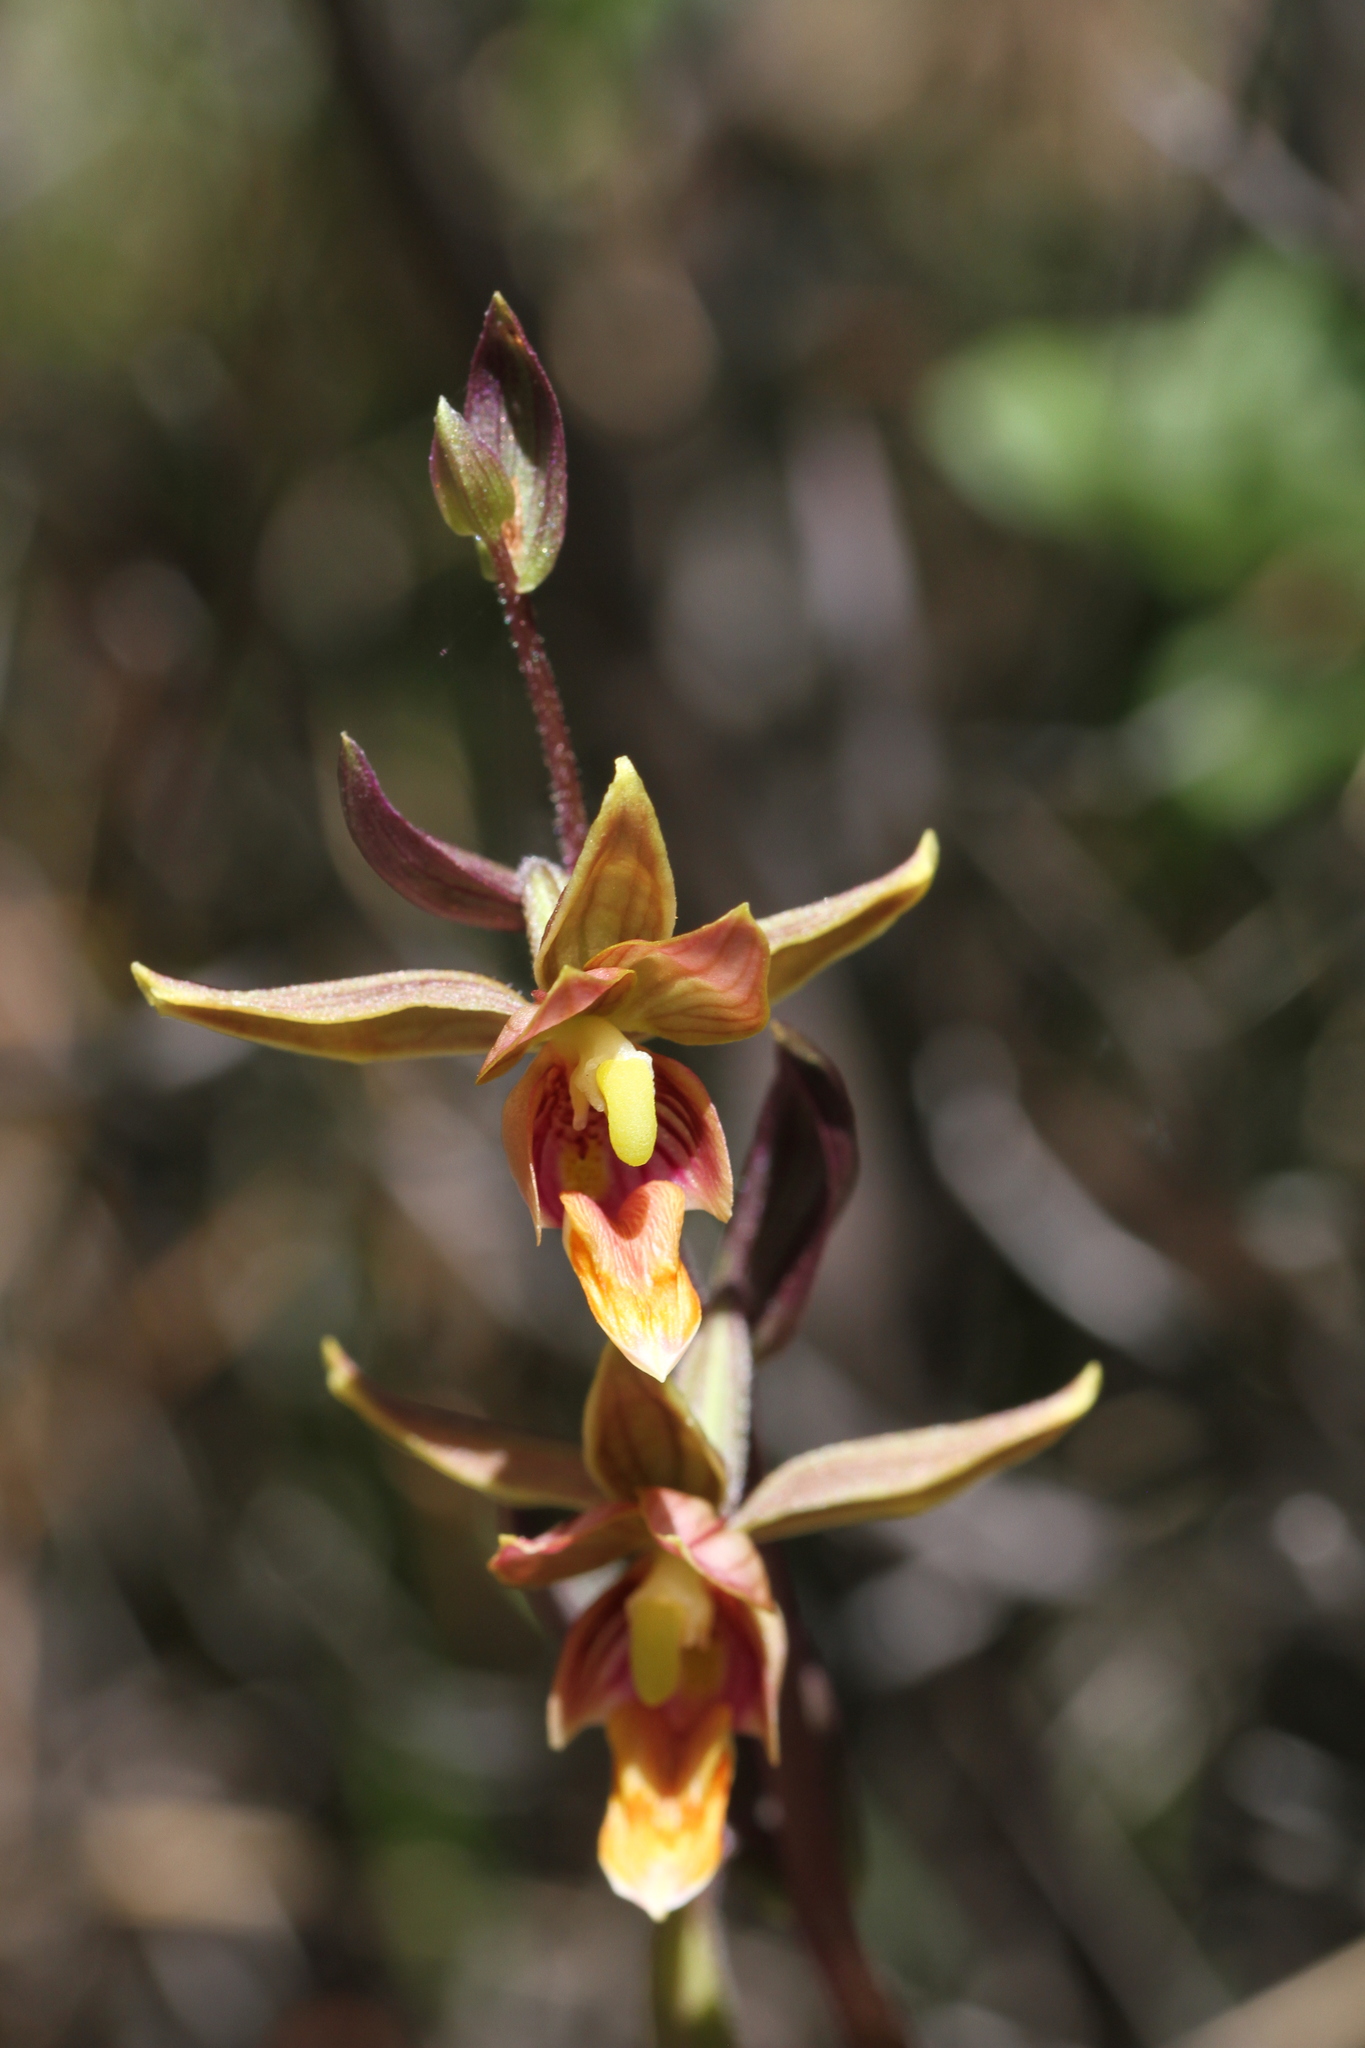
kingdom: Plantae
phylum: Tracheophyta
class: Liliopsida
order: Asparagales
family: Orchidaceae
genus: Epipactis
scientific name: Epipactis gigantea
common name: Chatterbox
